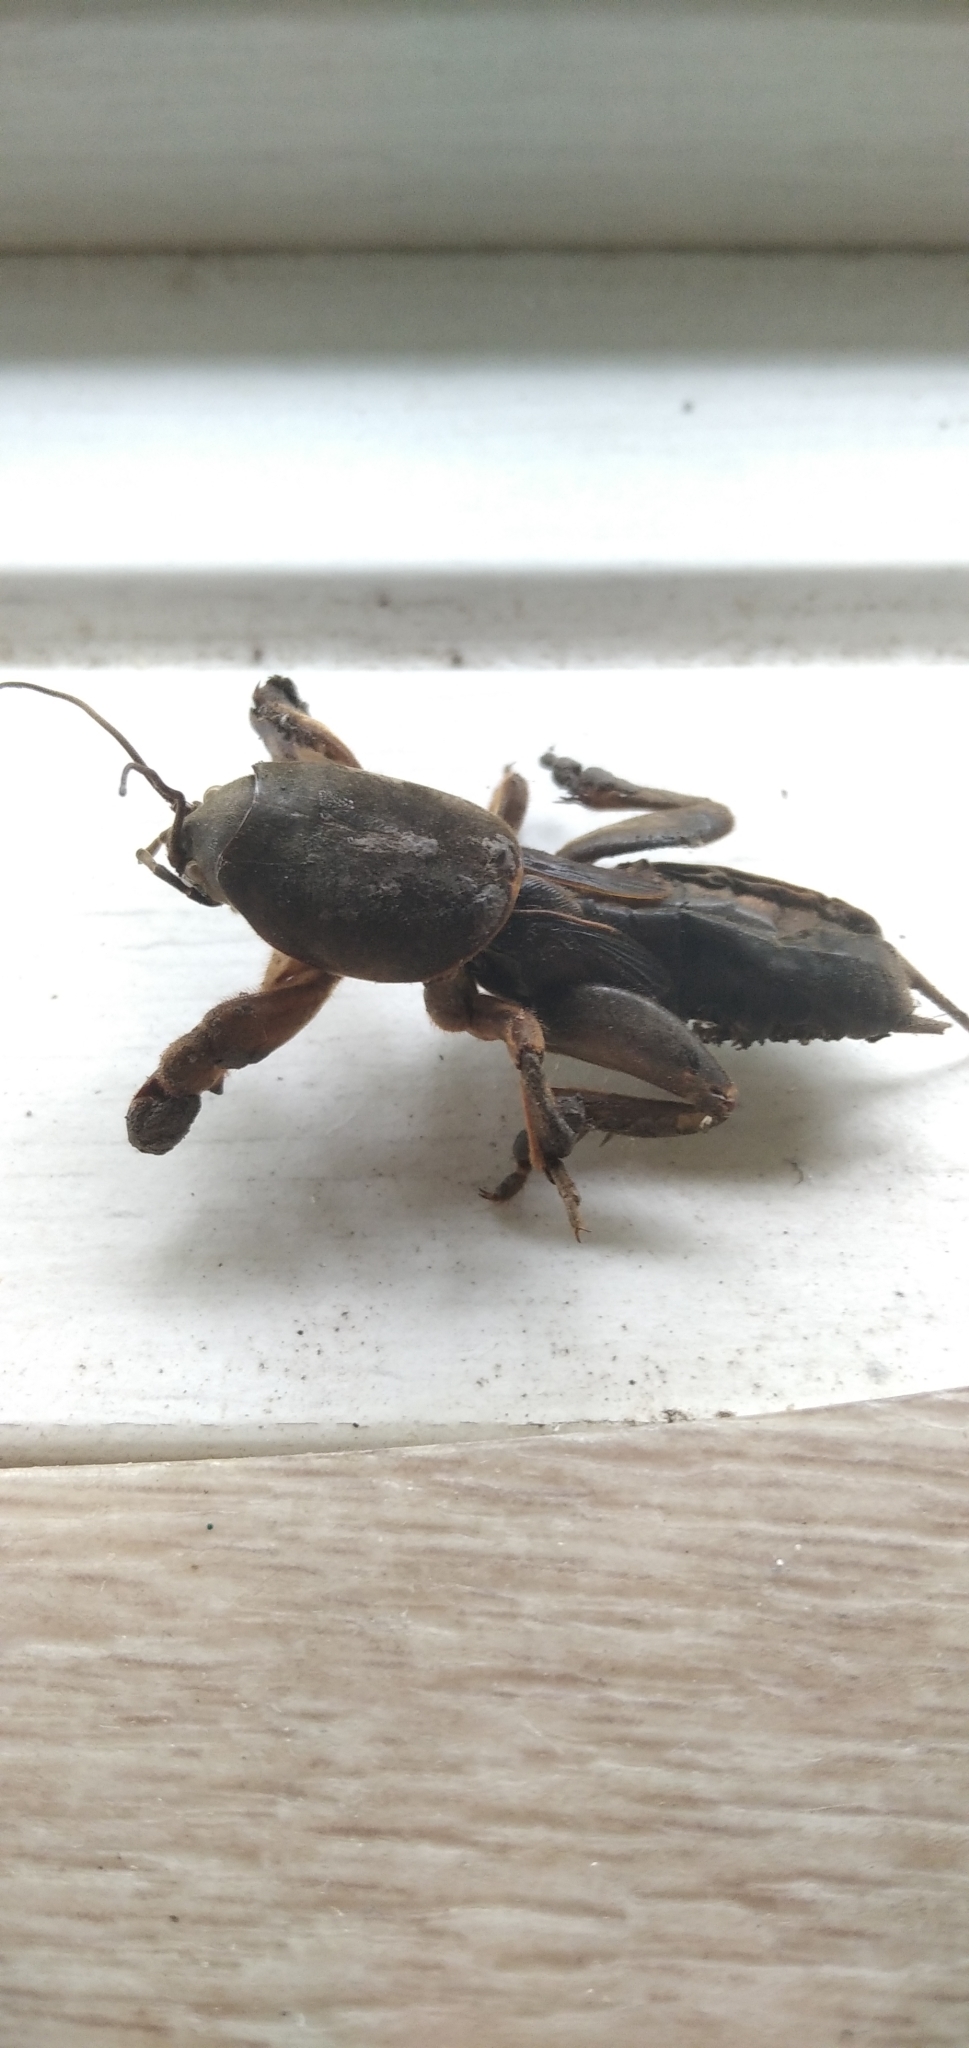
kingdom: Animalia
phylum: Arthropoda
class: Insecta
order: Orthoptera
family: Gryllotalpidae
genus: Gryllotalpa
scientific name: Gryllotalpa gryllotalpa
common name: European mole cricket
